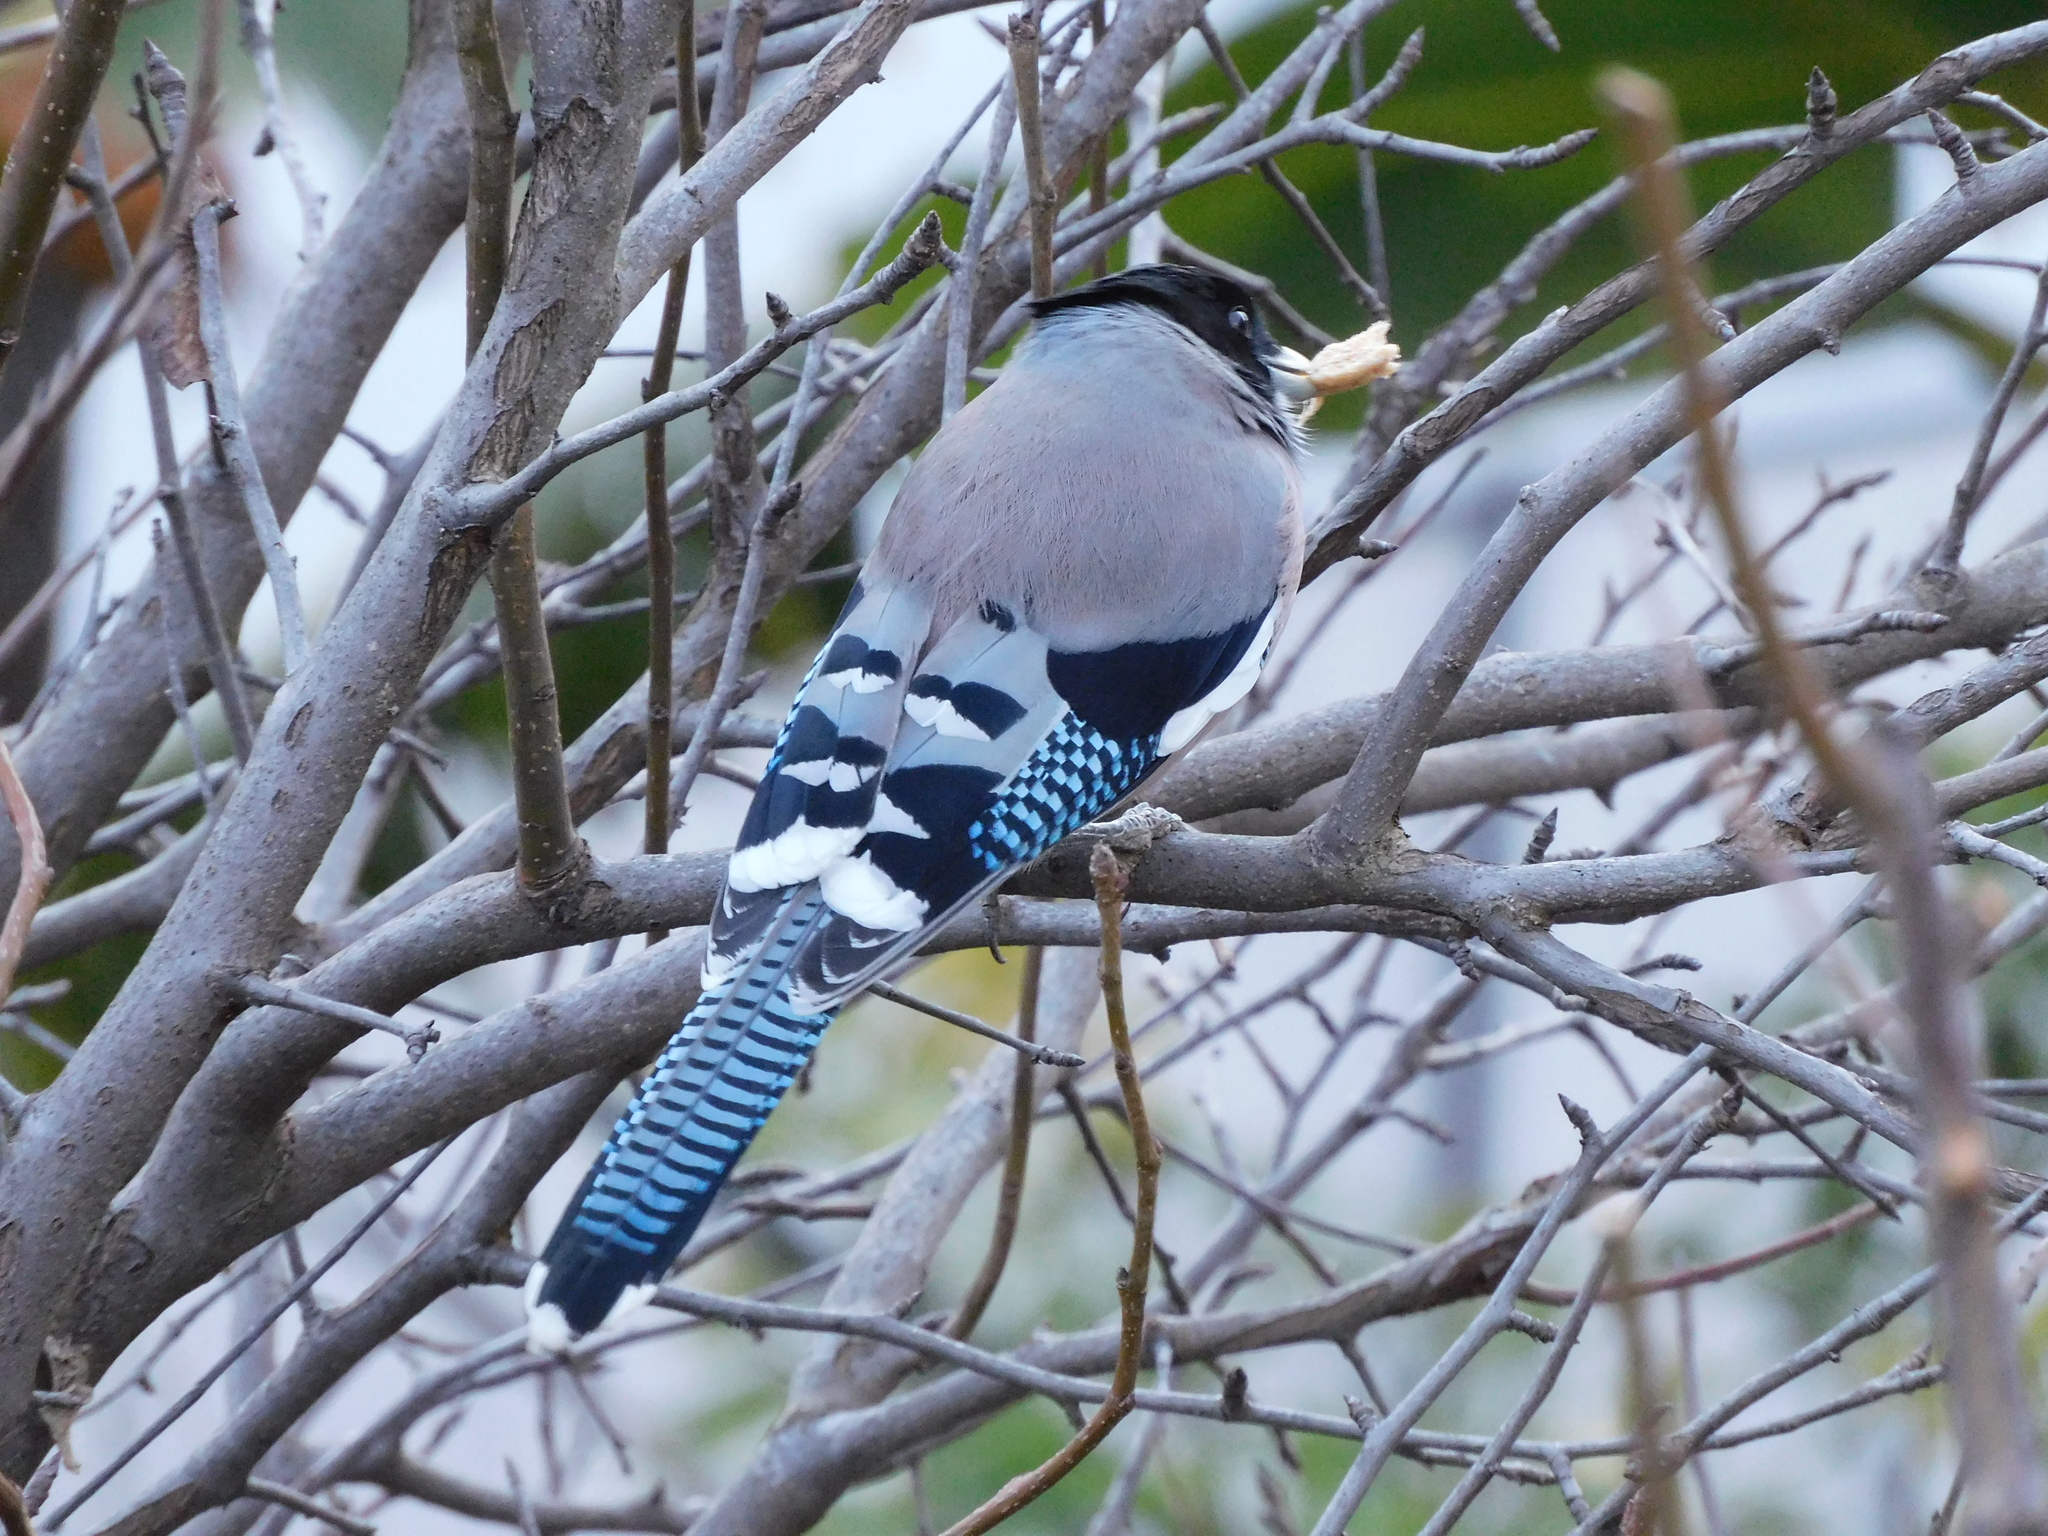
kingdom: Animalia
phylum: Chordata
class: Aves
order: Passeriformes
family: Corvidae
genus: Garrulus
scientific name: Garrulus lanceolatus
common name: Black-headed jay
